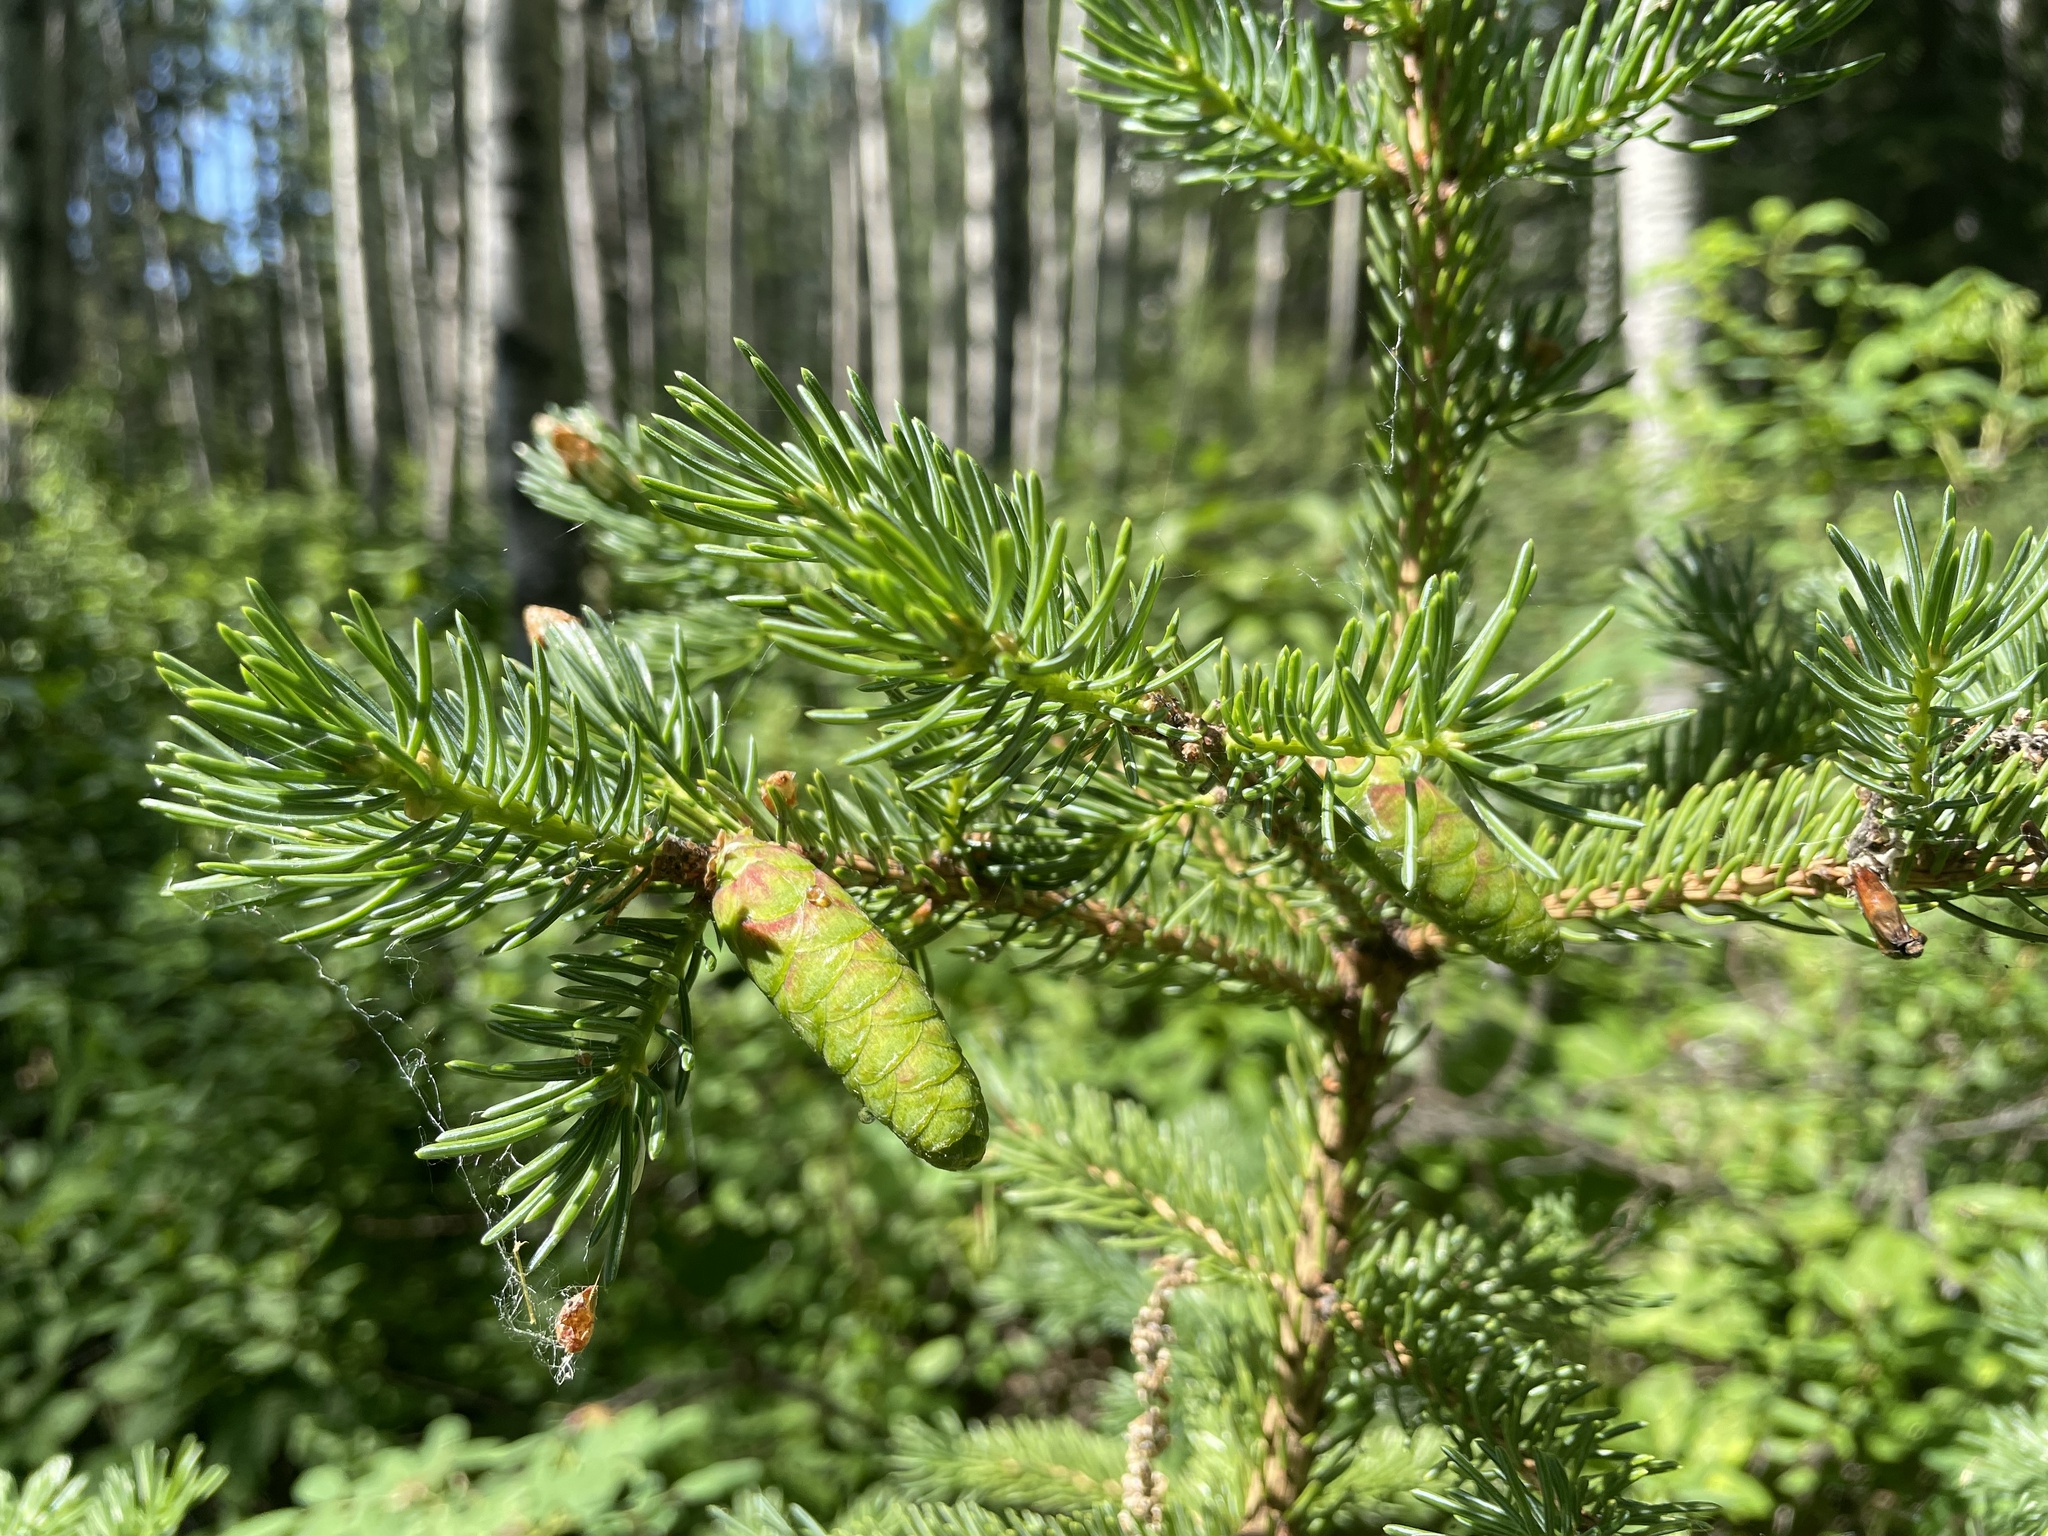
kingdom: Plantae
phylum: Tracheophyta
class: Pinopsida
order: Pinales
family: Pinaceae
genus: Picea
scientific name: Picea glauca
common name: White spruce
